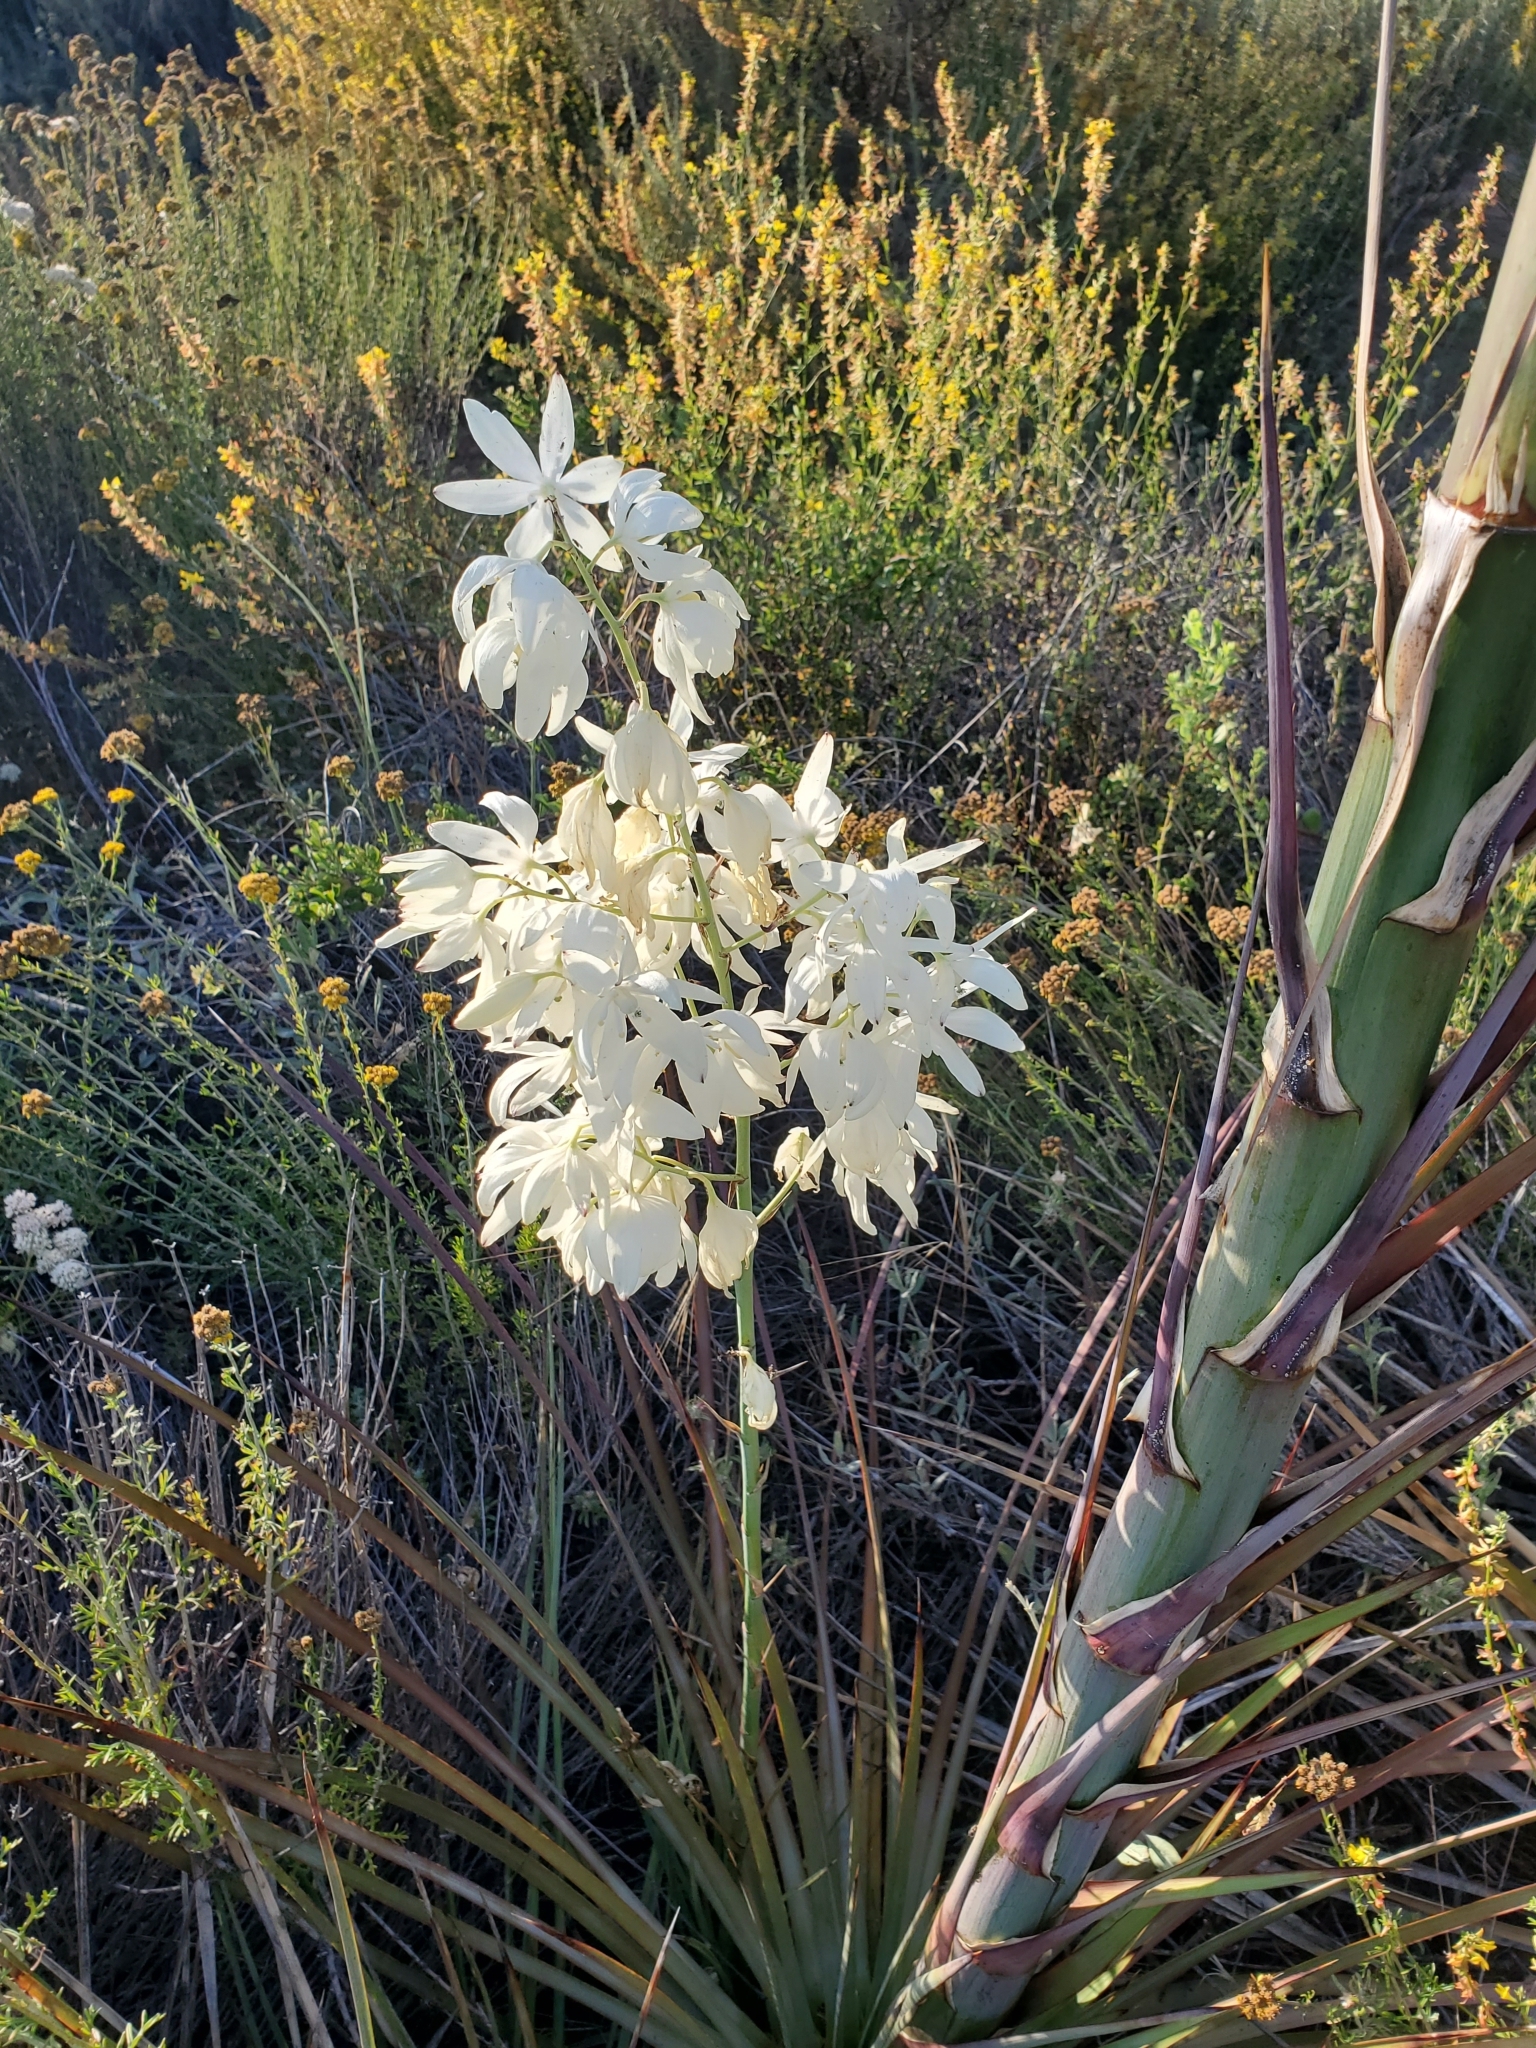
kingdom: Plantae
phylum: Tracheophyta
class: Liliopsida
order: Asparagales
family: Asparagaceae
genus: Hesperoyucca
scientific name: Hesperoyucca whipplei
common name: Our lord's-candle
